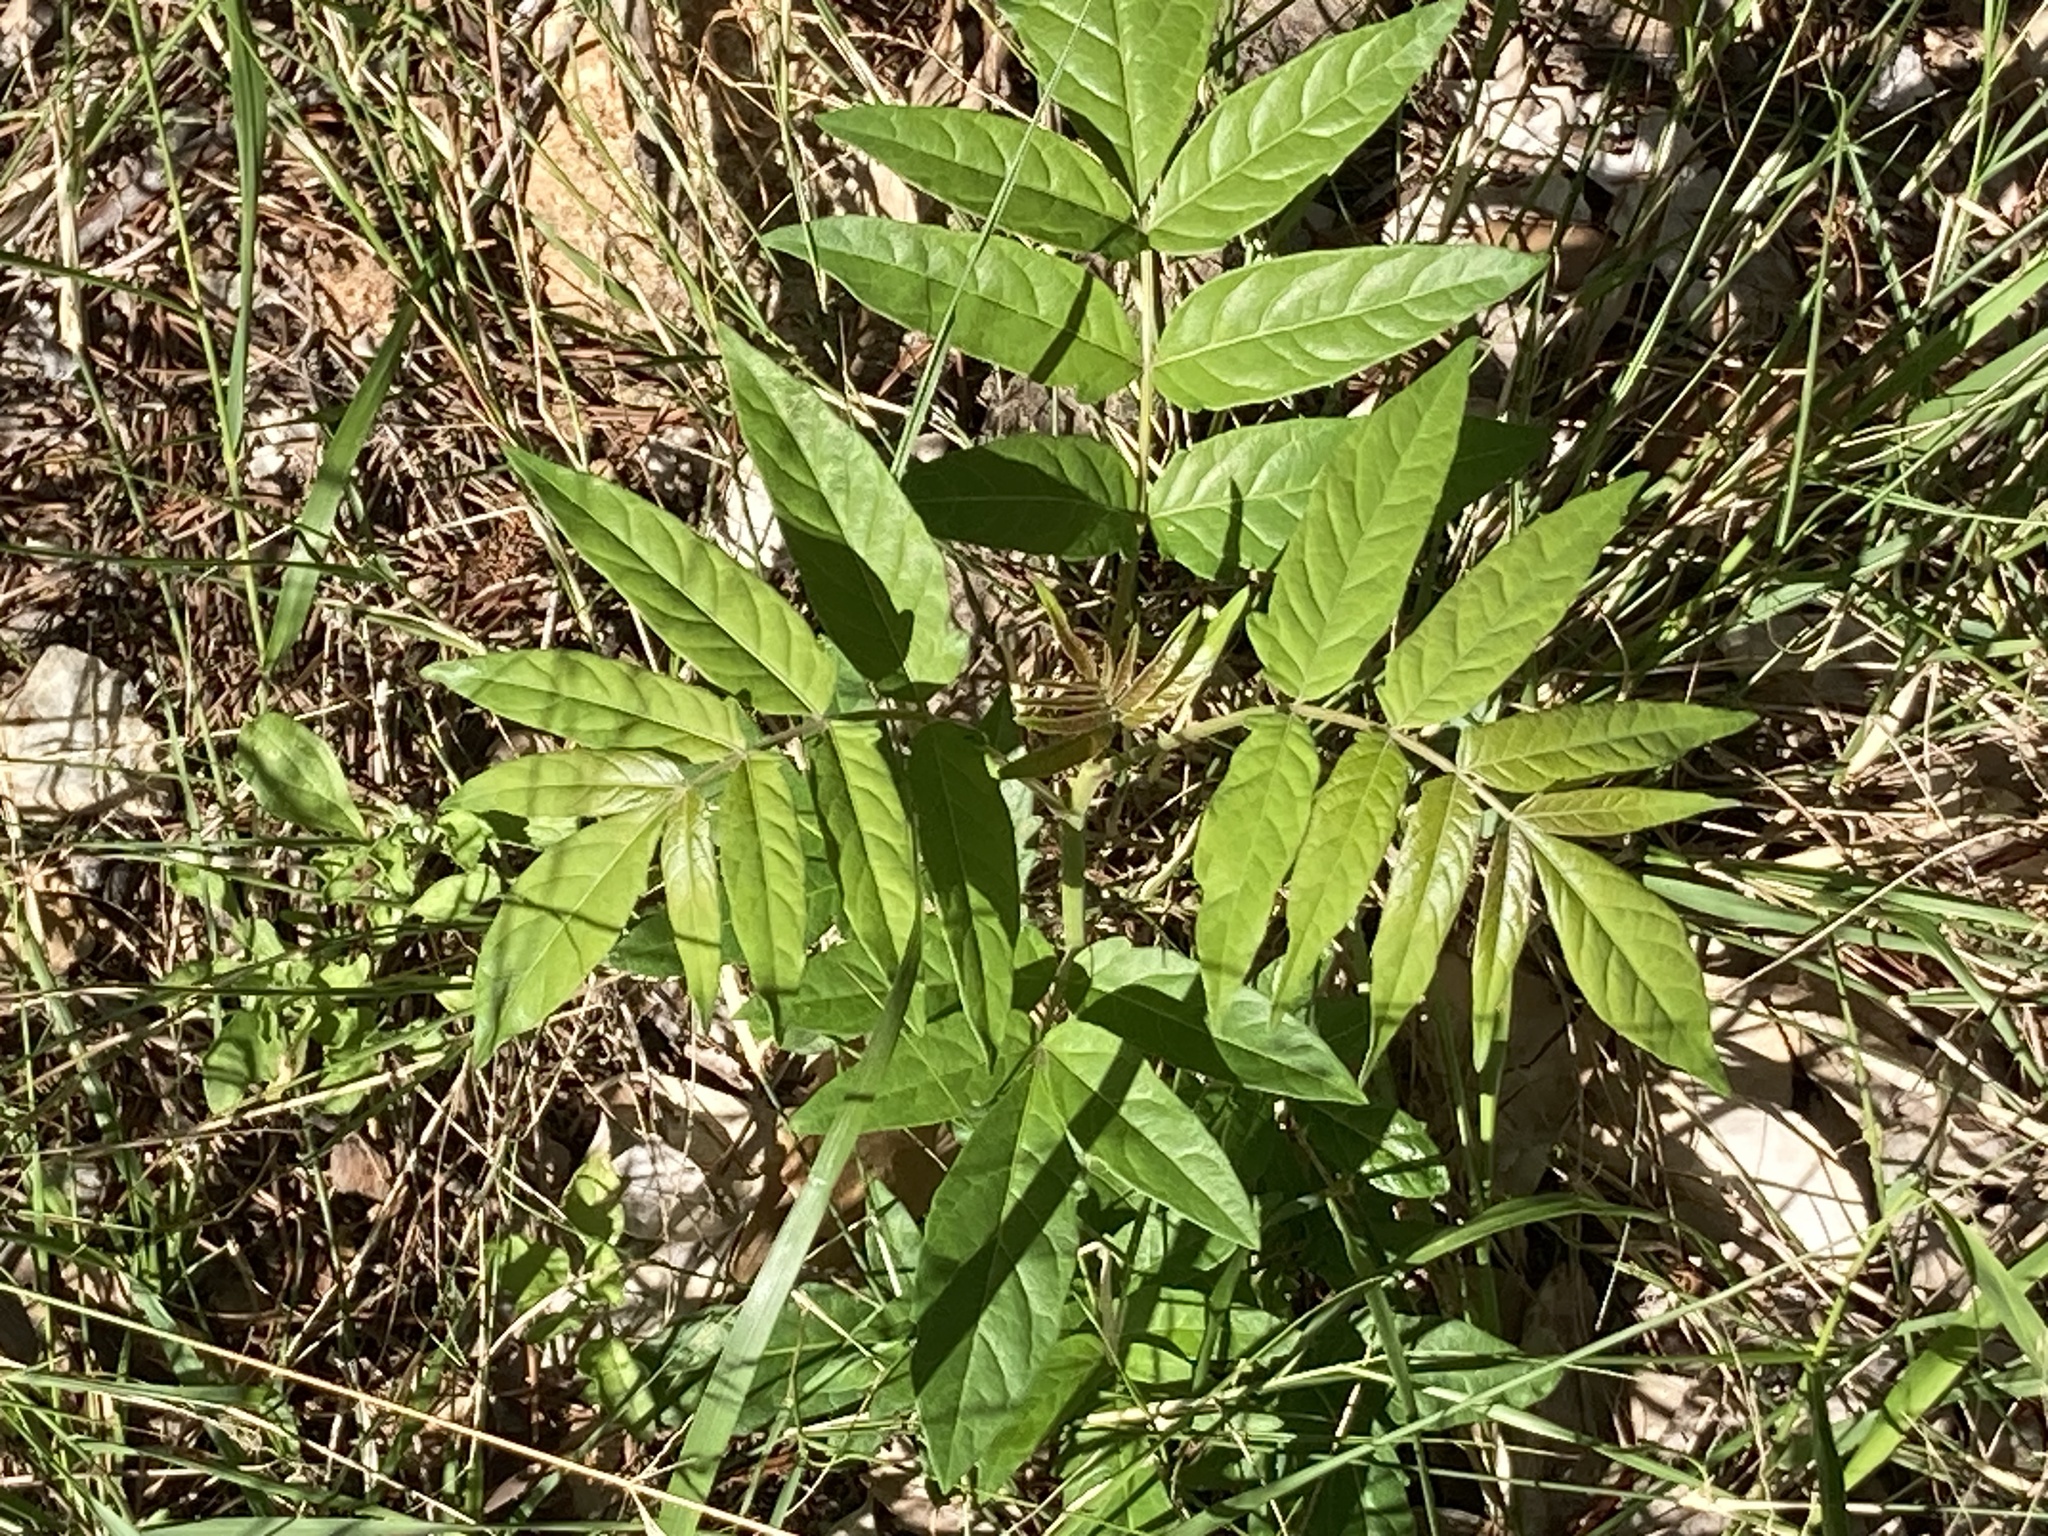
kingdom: Plantae
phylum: Tracheophyta
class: Magnoliopsida
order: Sapindales
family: Simaroubaceae
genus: Ailanthus
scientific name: Ailanthus altissima
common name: Tree-of-heaven
